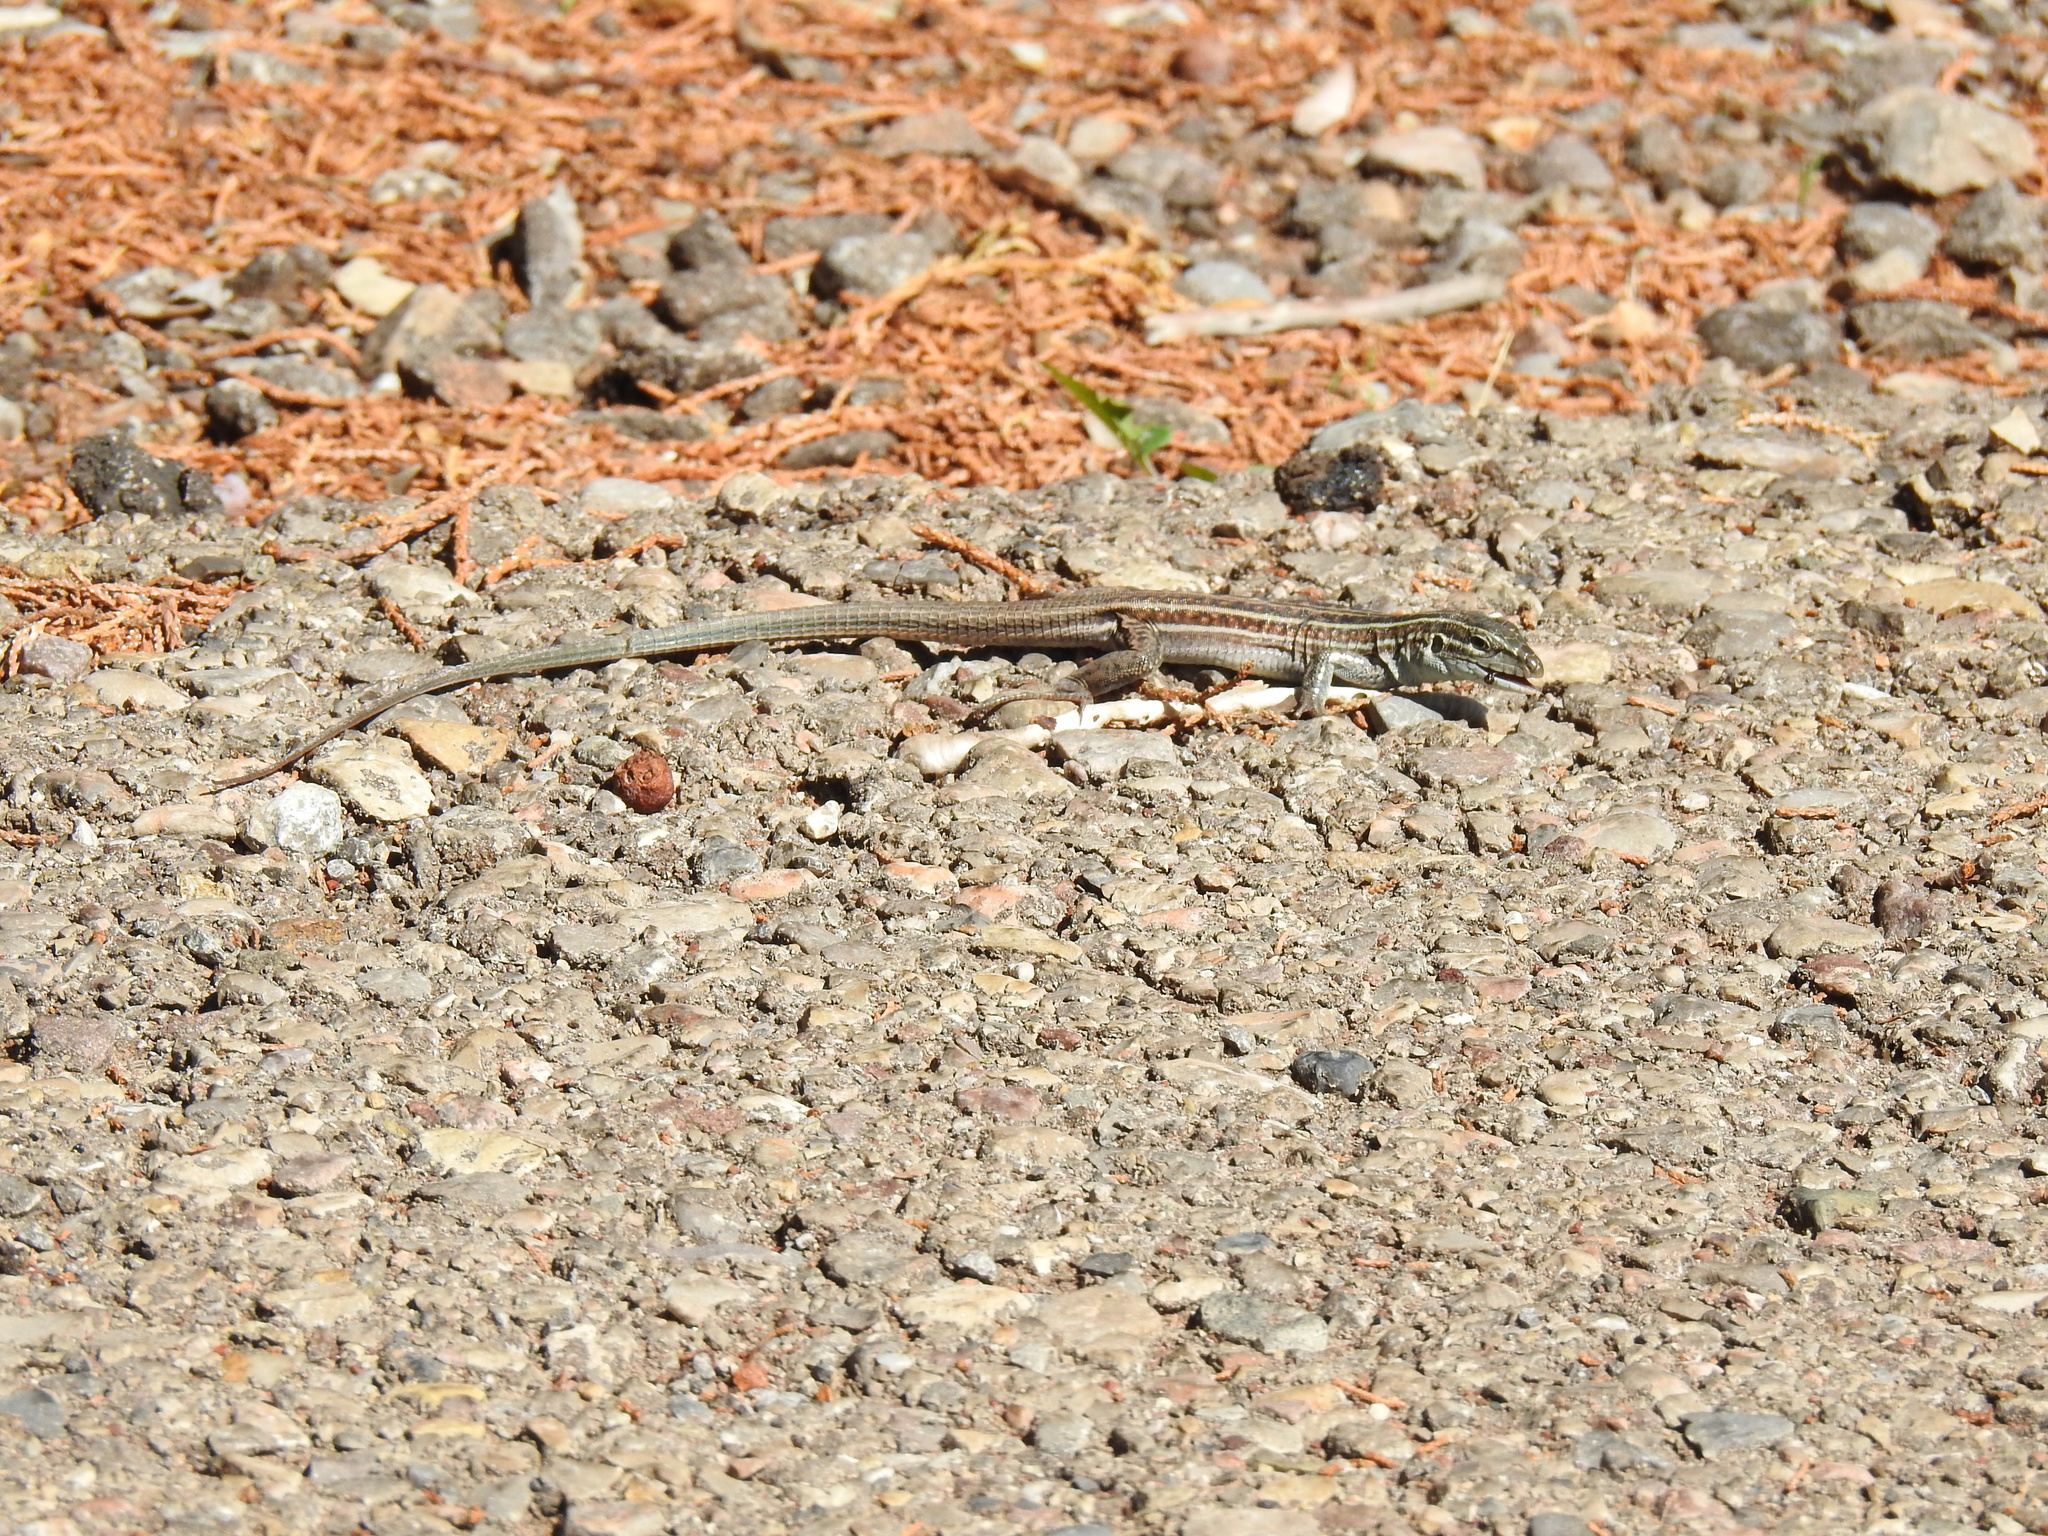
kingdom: Animalia
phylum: Chordata
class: Squamata
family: Teiidae
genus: Aspidoscelis
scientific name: Aspidoscelis exsanguis
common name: Chihuahuan spotted whiptail
